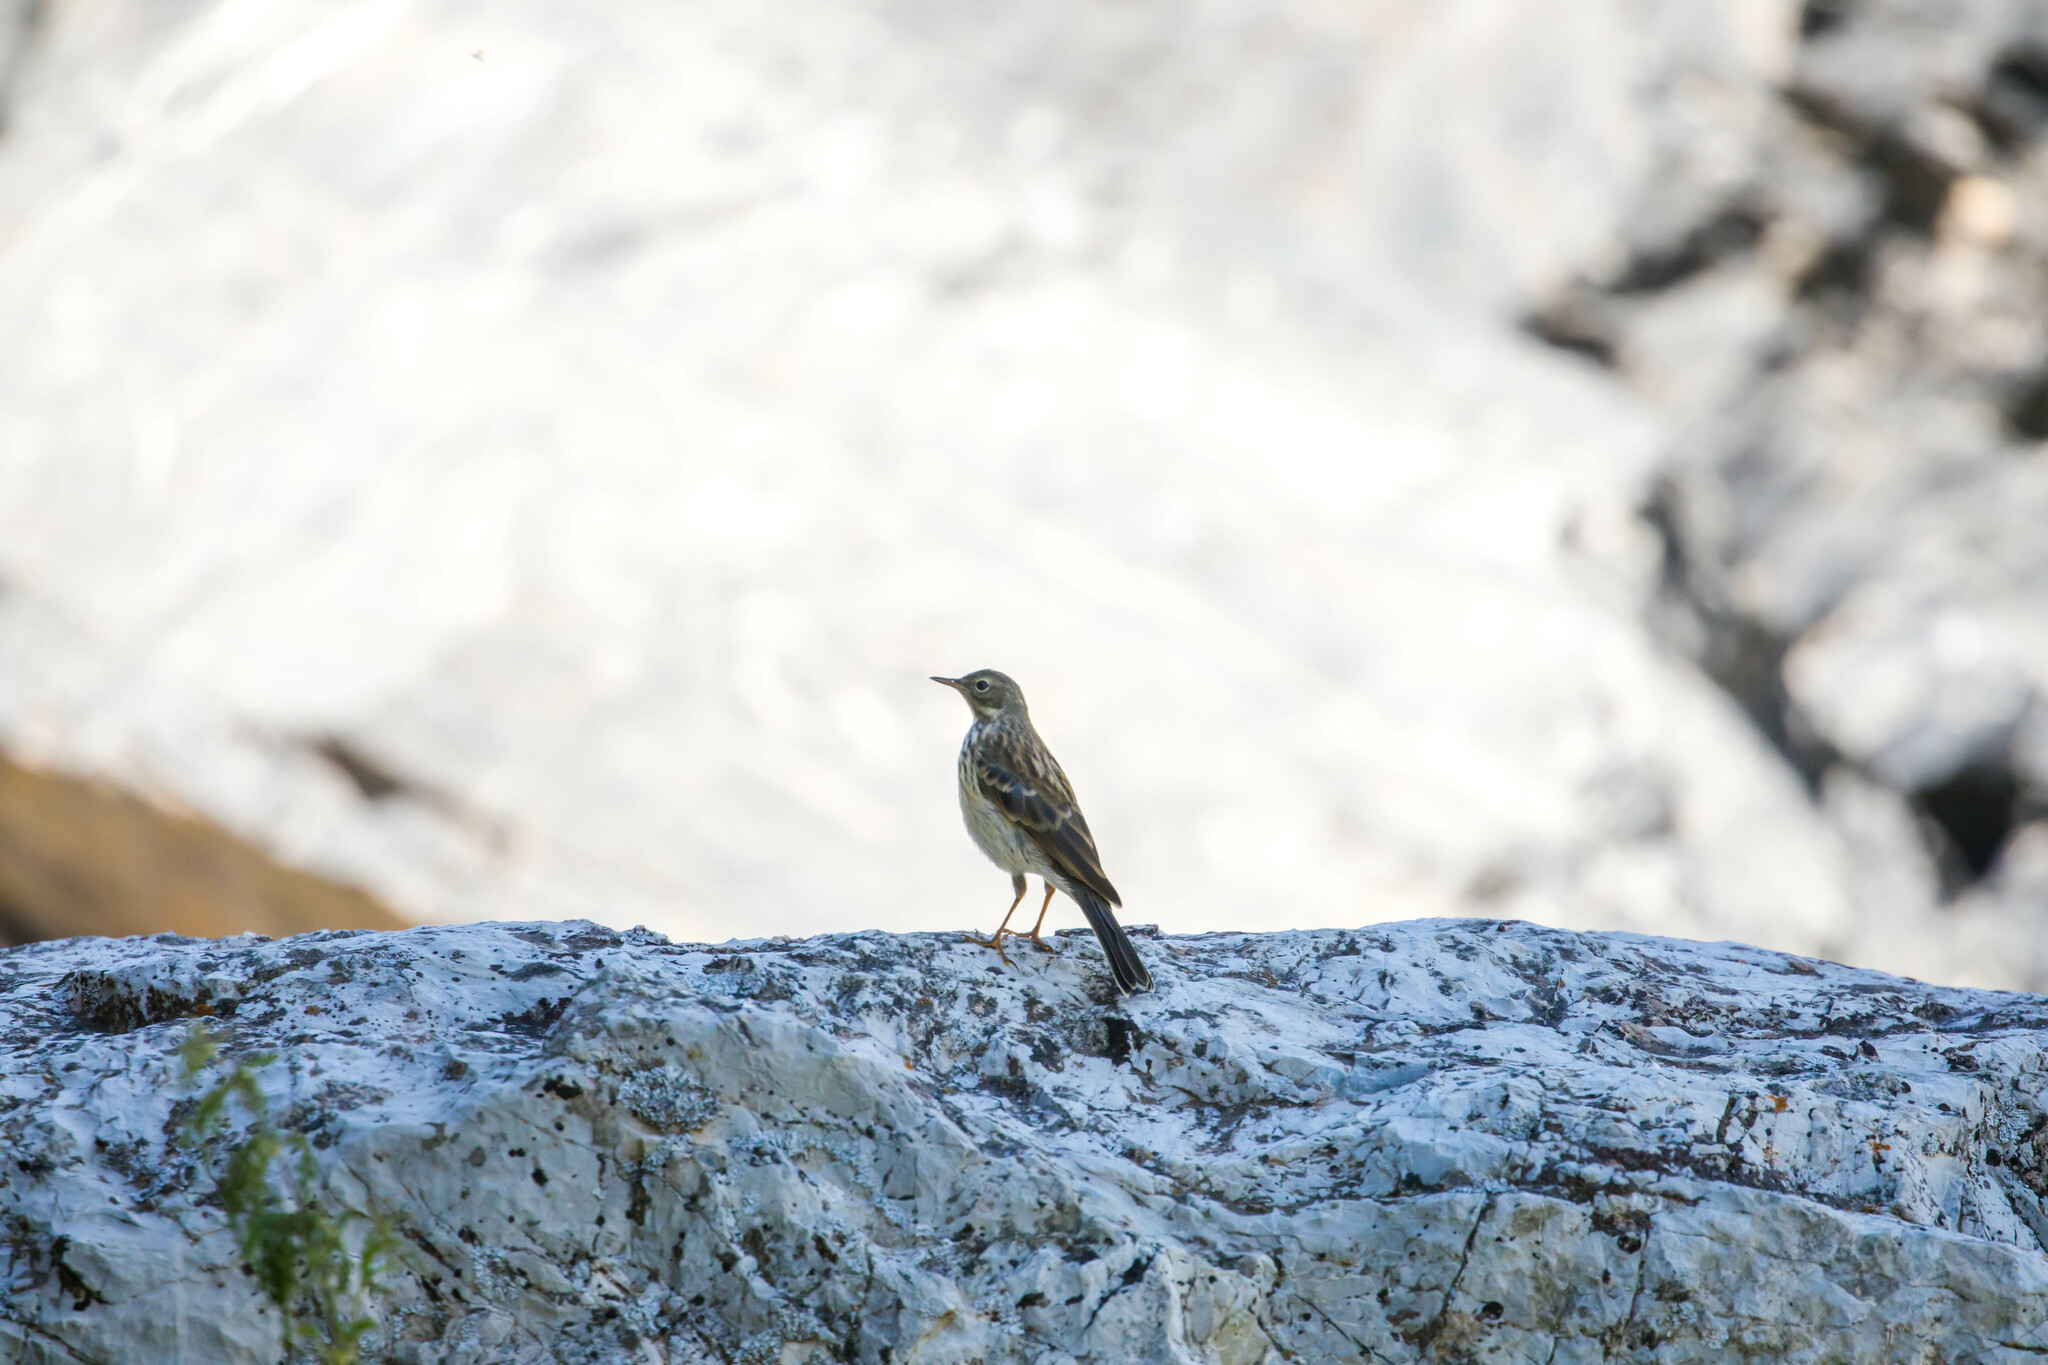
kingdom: Animalia
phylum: Chordata
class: Aves
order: Passeriformes
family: Motacillidae
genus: Anthus
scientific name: Anthus trivialis
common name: Tree pipit
